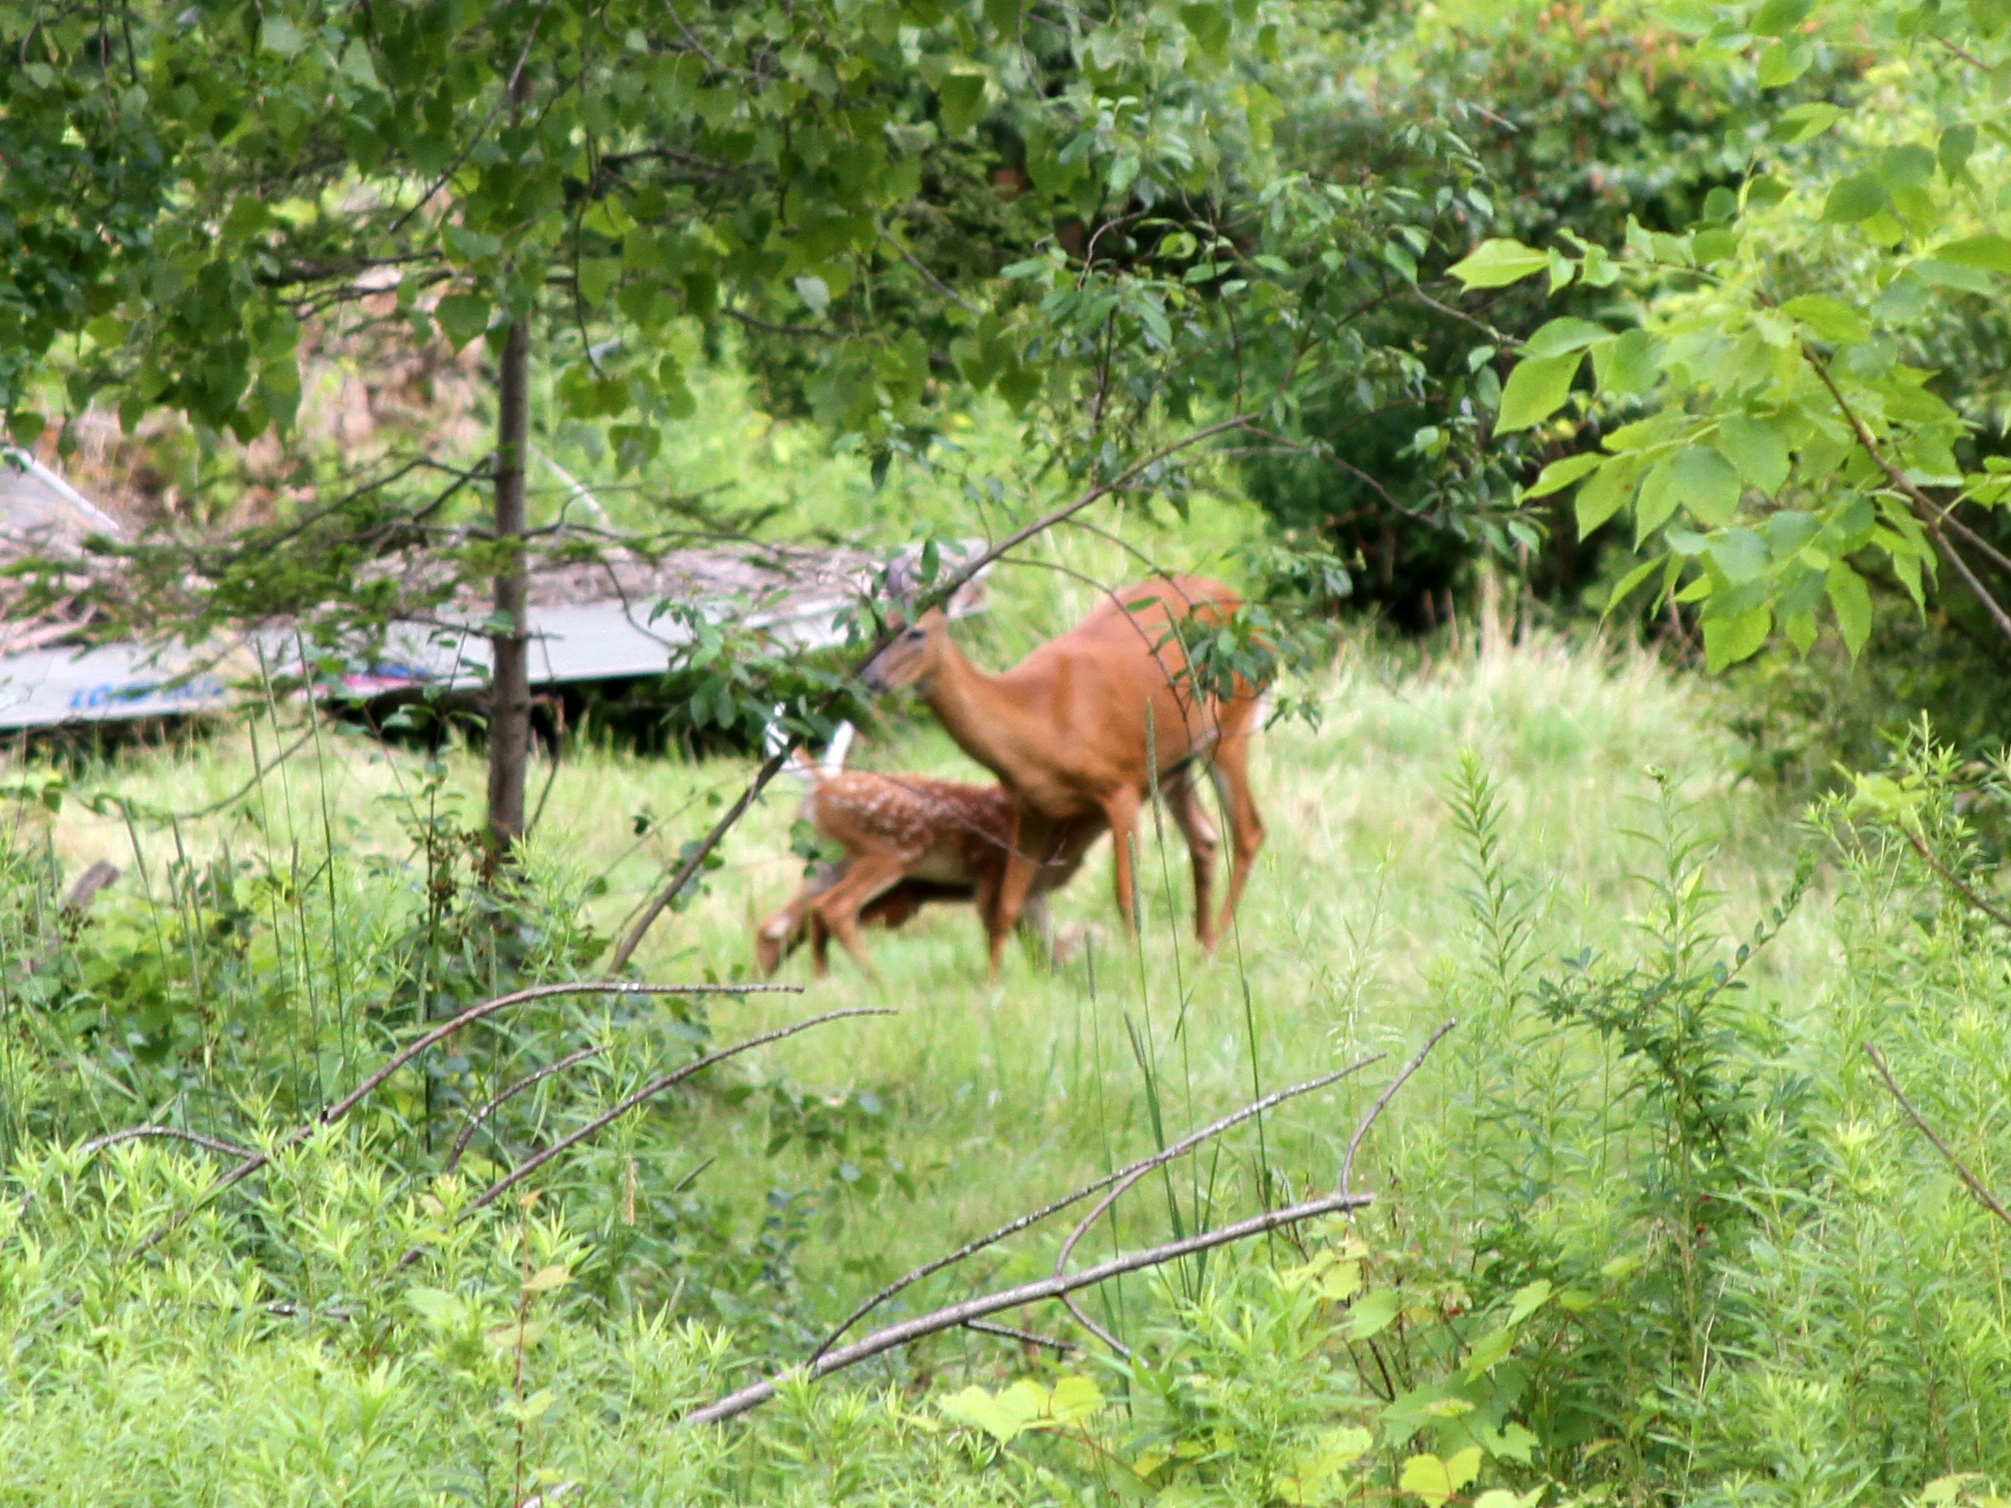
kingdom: Animalia
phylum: Chordata
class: Mammalia
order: Artiodactyla
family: Cervidae
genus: Odocoileus
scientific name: Odocoileus virginianus
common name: White-tailed deer
